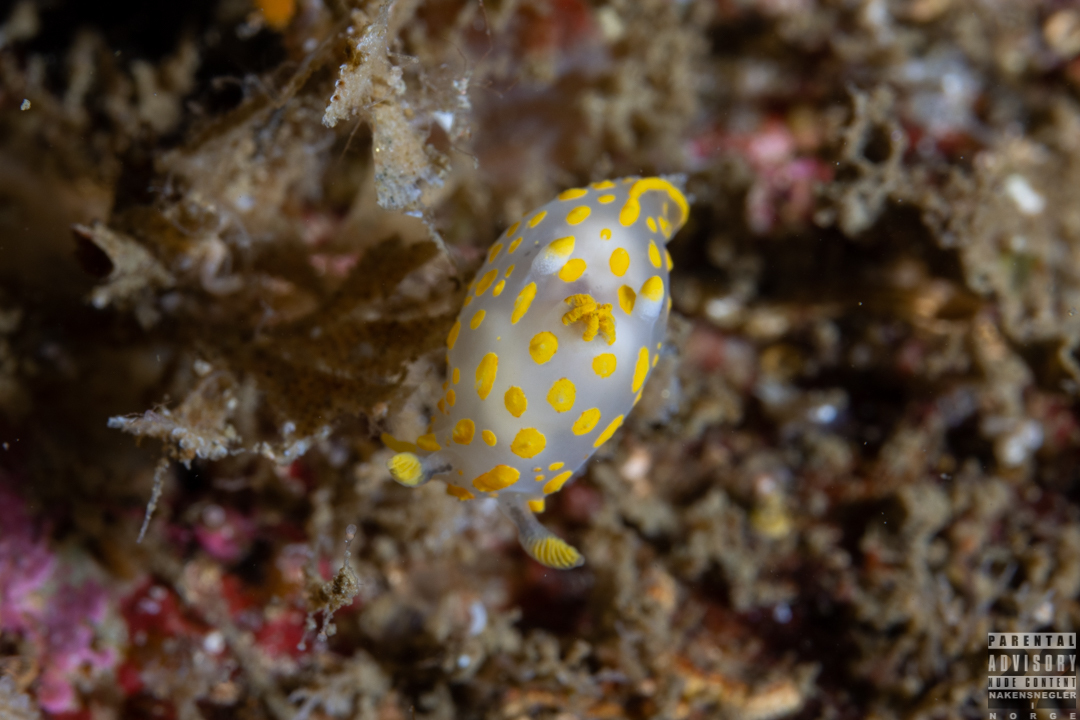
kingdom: Animalia
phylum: Mollusca
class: Gastropoda
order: Nudibranchia
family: Polyceridae
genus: Polycera
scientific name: Polycera quadrilineata
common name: Four-striped polycera
